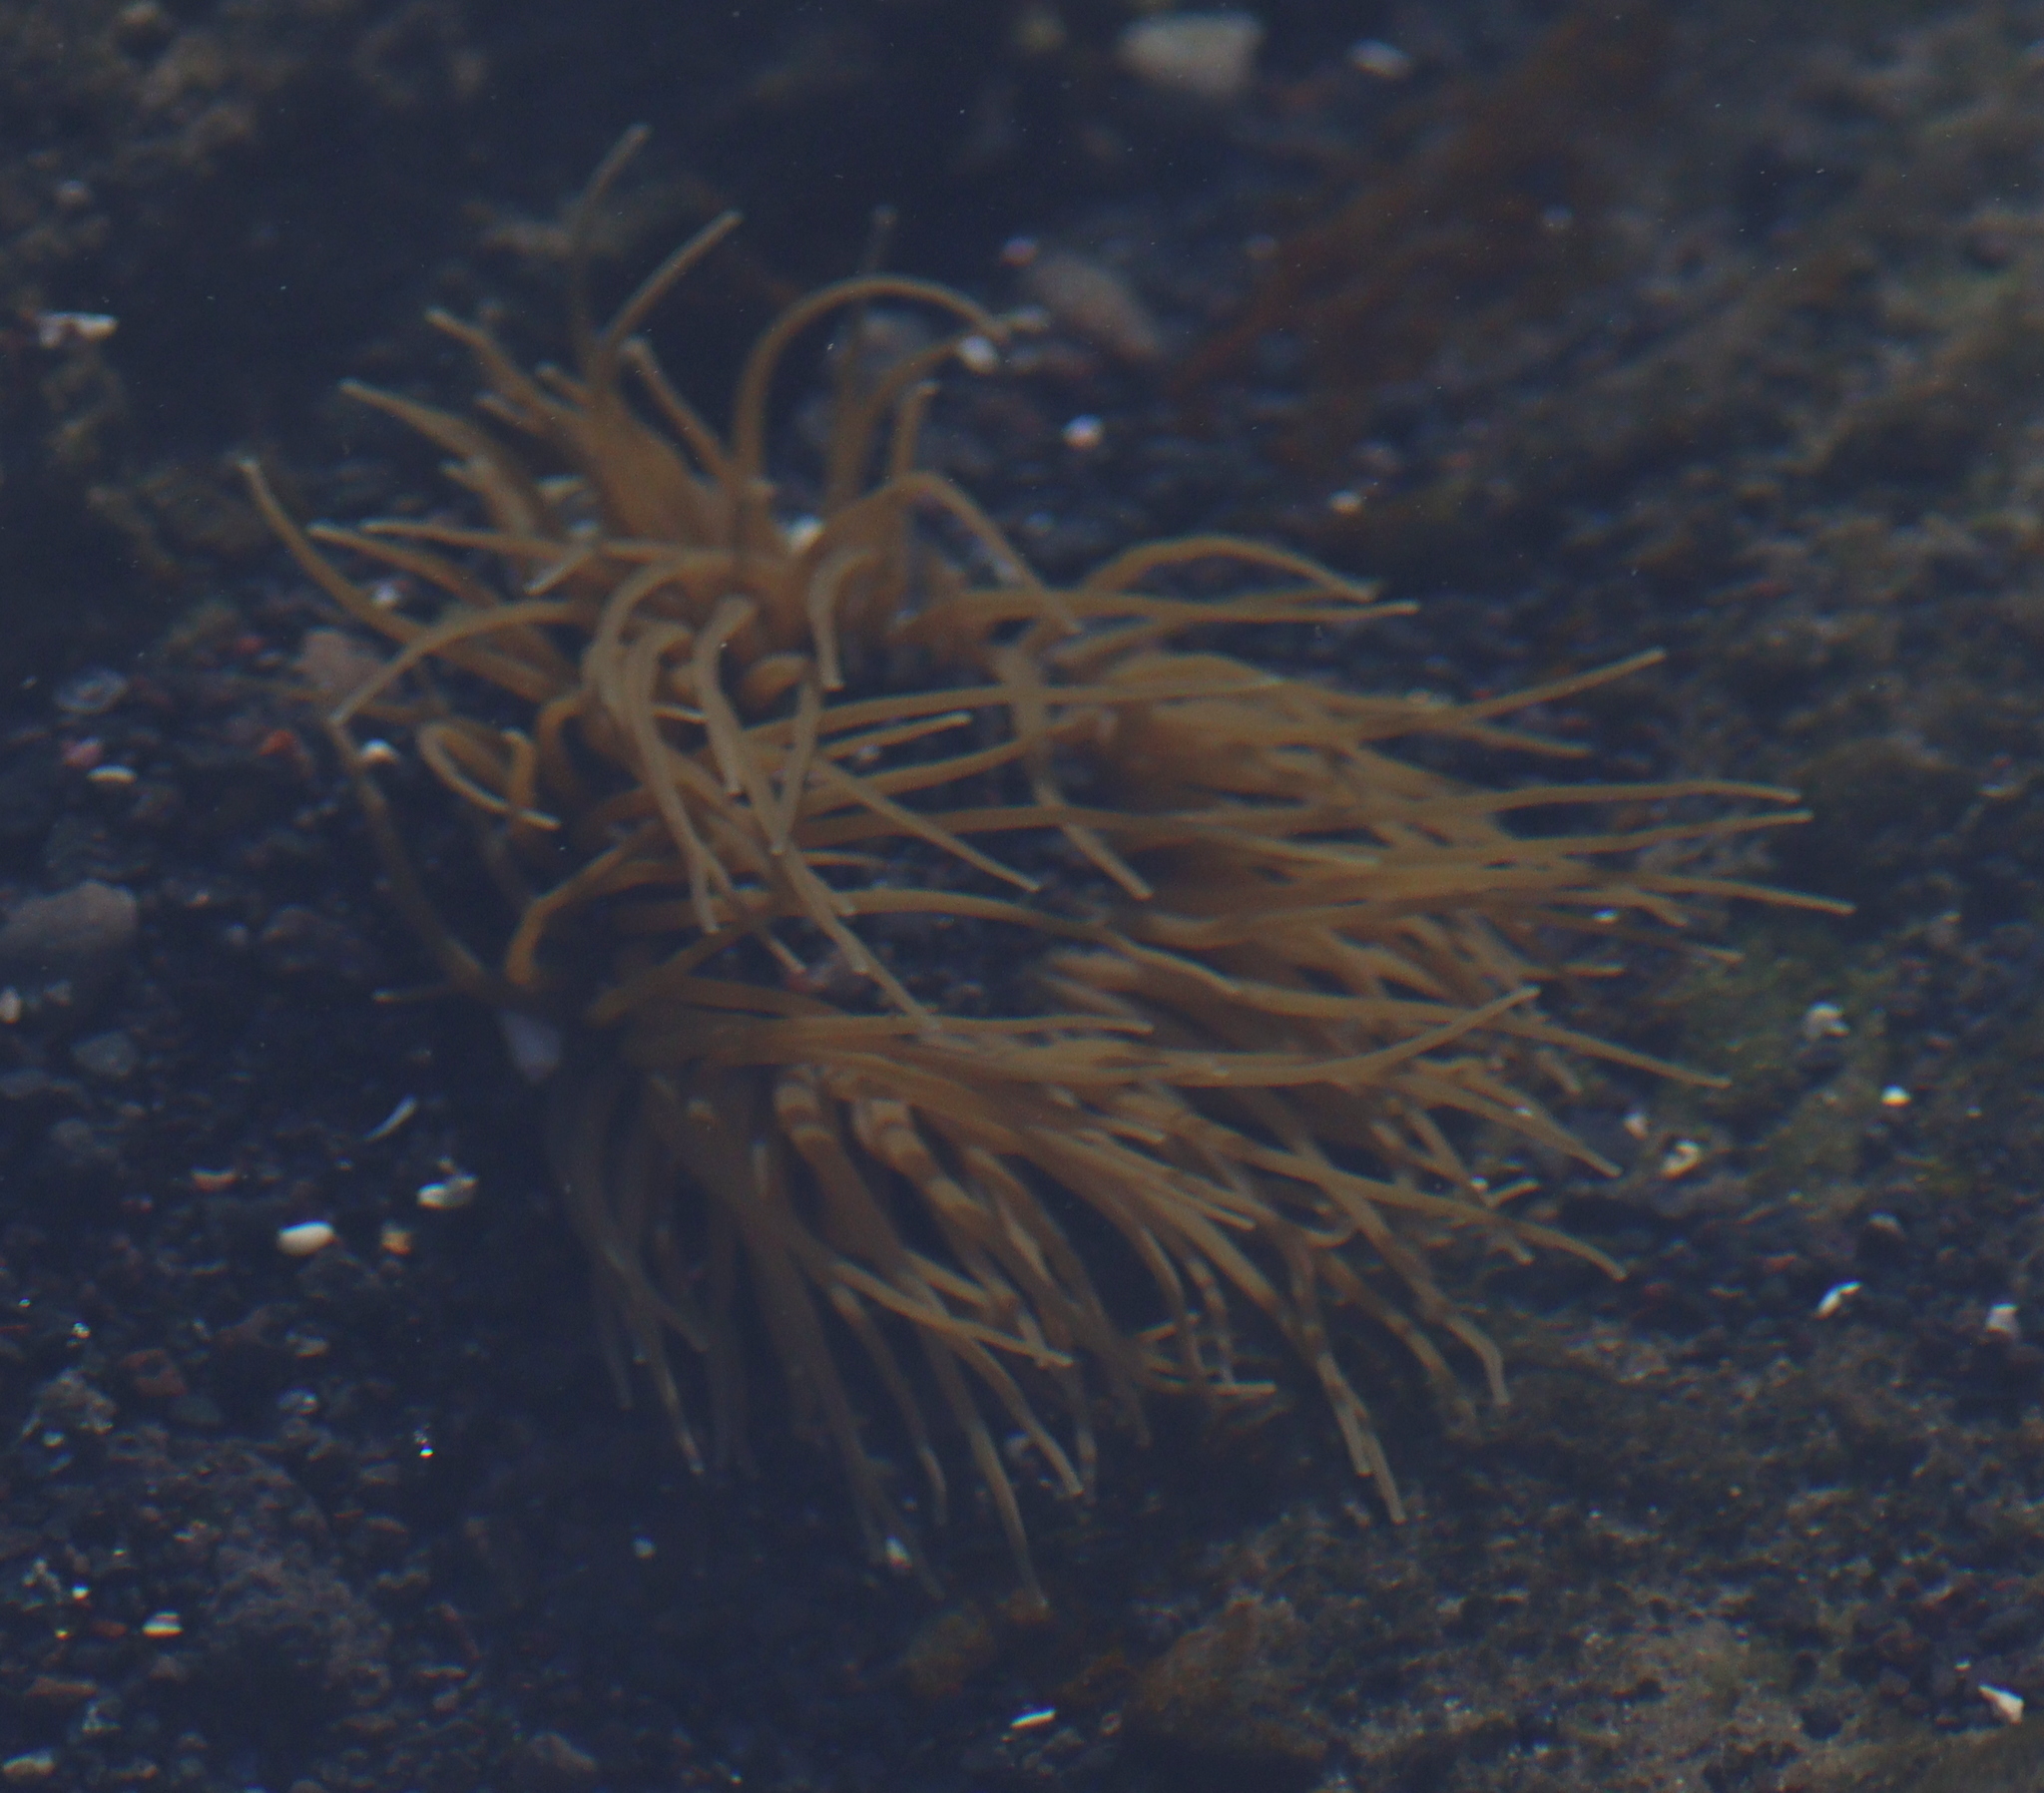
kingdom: Animalia
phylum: Cnidaria
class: Anthozoa
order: Actiniaria
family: Actiniidae
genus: Anemonia
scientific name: Anemonia viridis
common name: Snakelocks anemone
